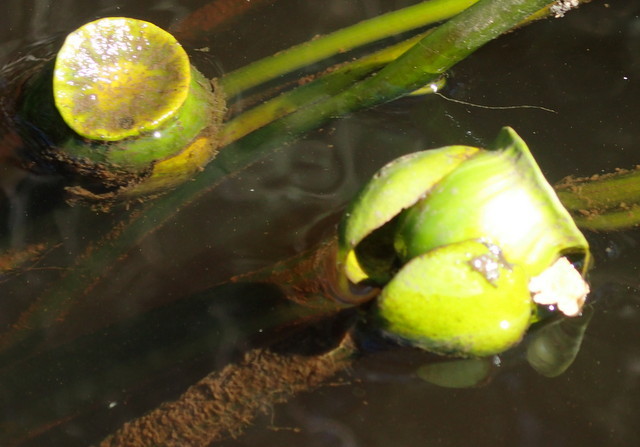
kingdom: Plantae
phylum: Tracheophyta
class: Magnoliopsida
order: Nymphaeales
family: Nymphaeaceae
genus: Nuphar
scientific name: Nuphar advena
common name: Spatter-dock
